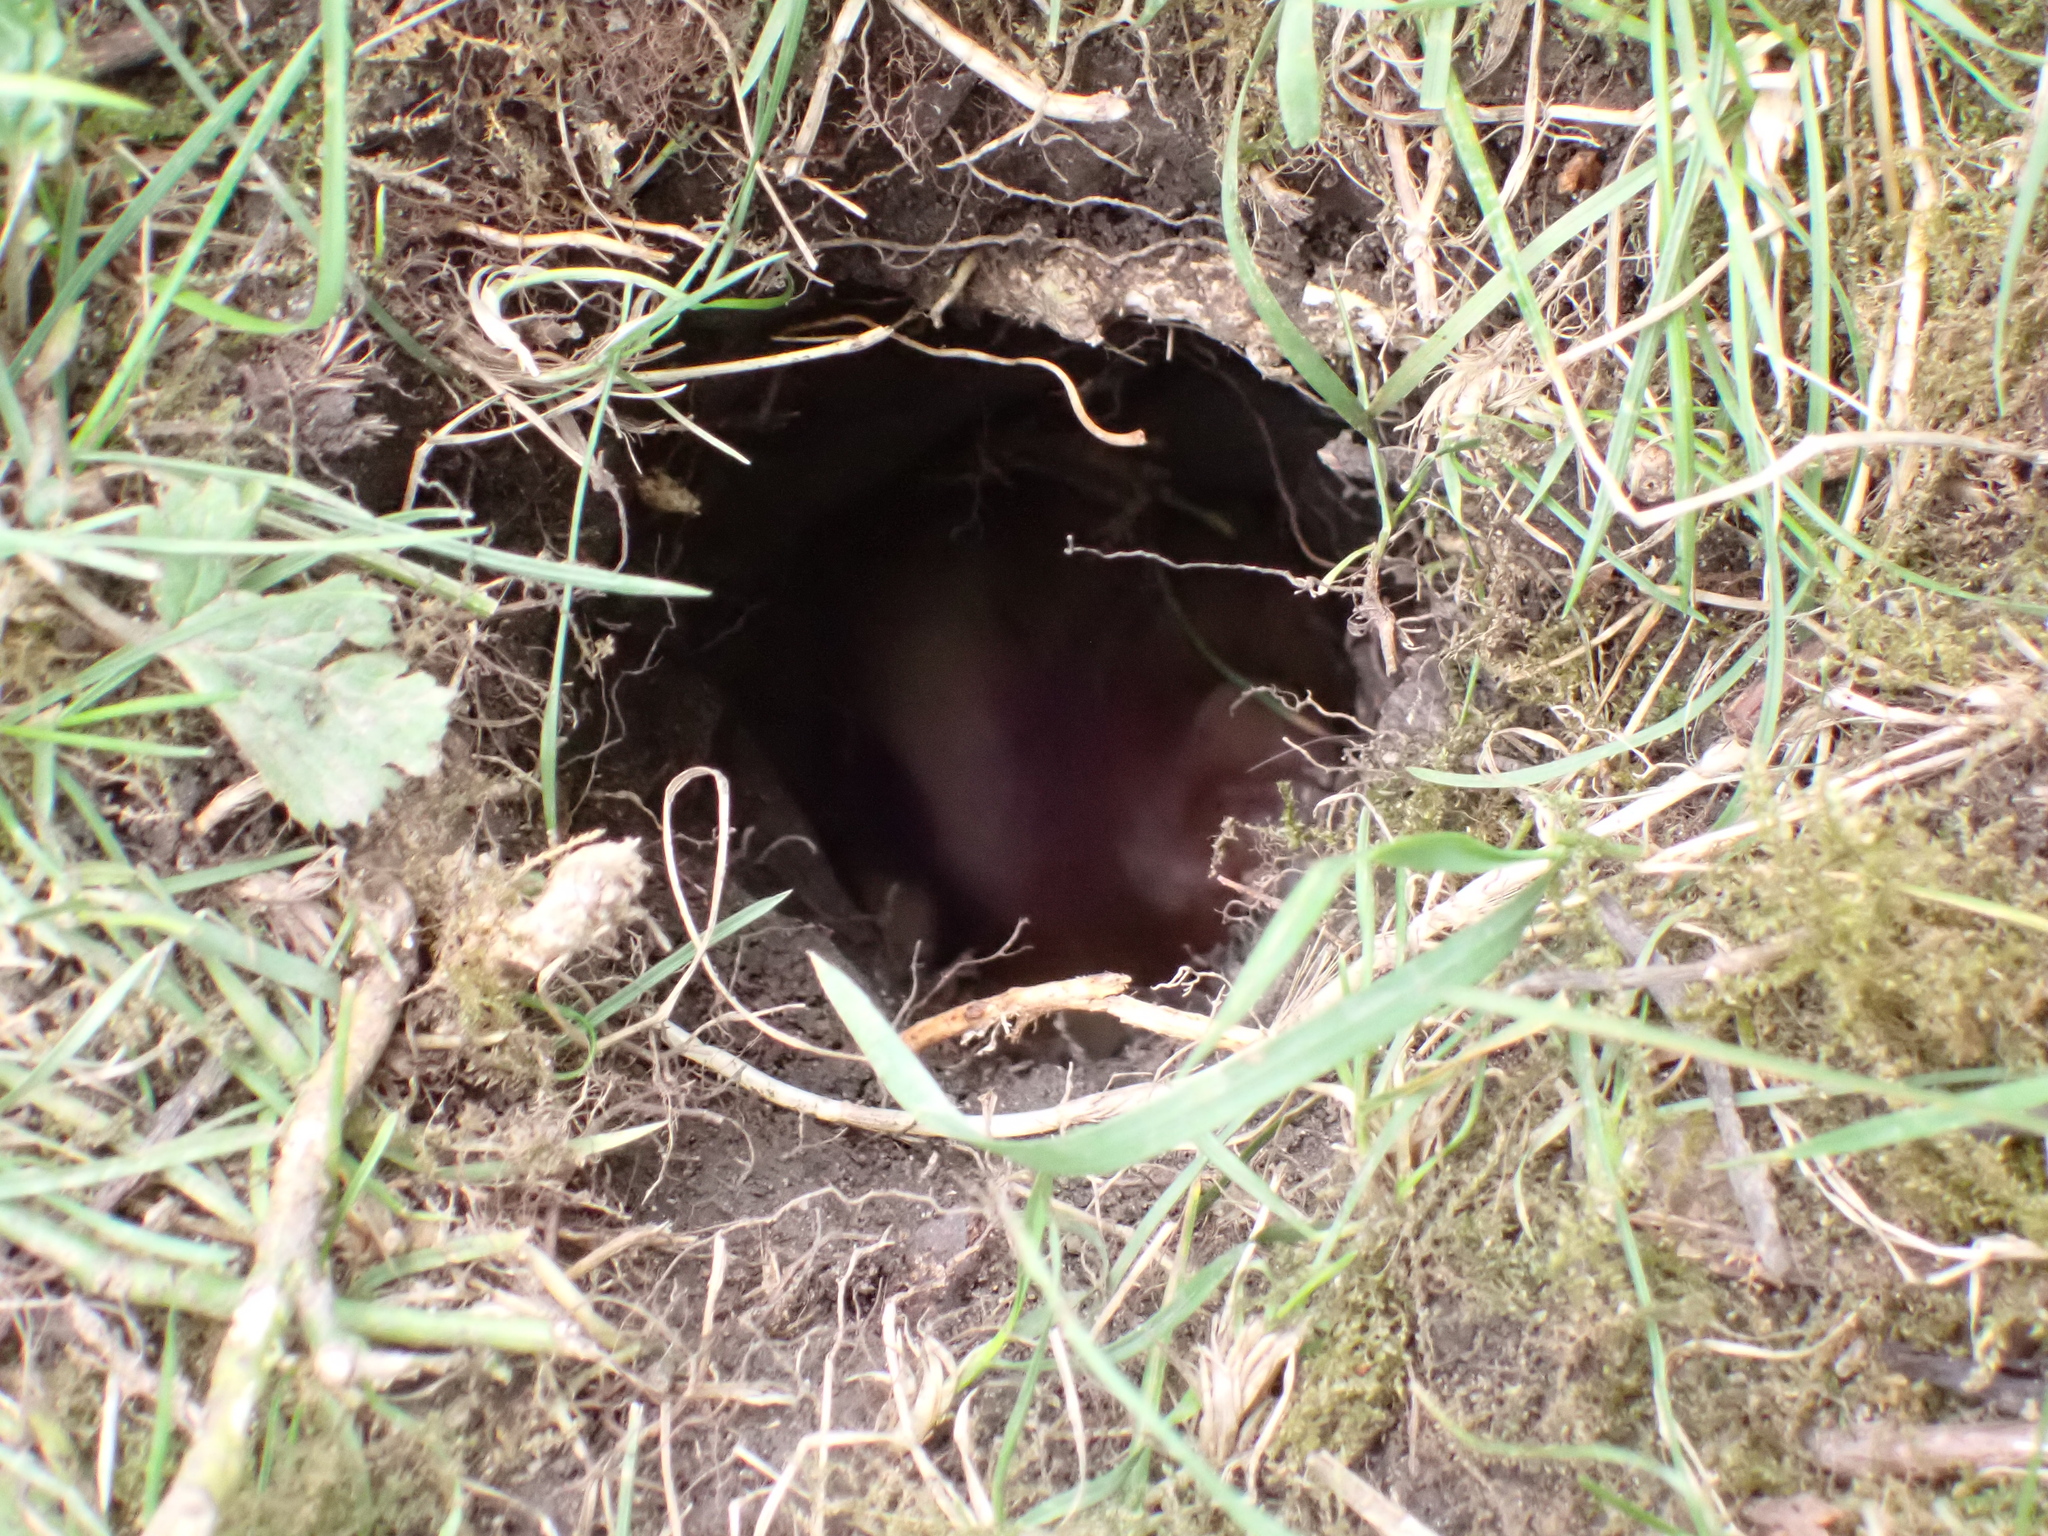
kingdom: Animalia
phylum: Chordata
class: Mammalia
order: Rodentia
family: Cricetidae
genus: Cricetus
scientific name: Cricetus cricetus
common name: Common hamster
